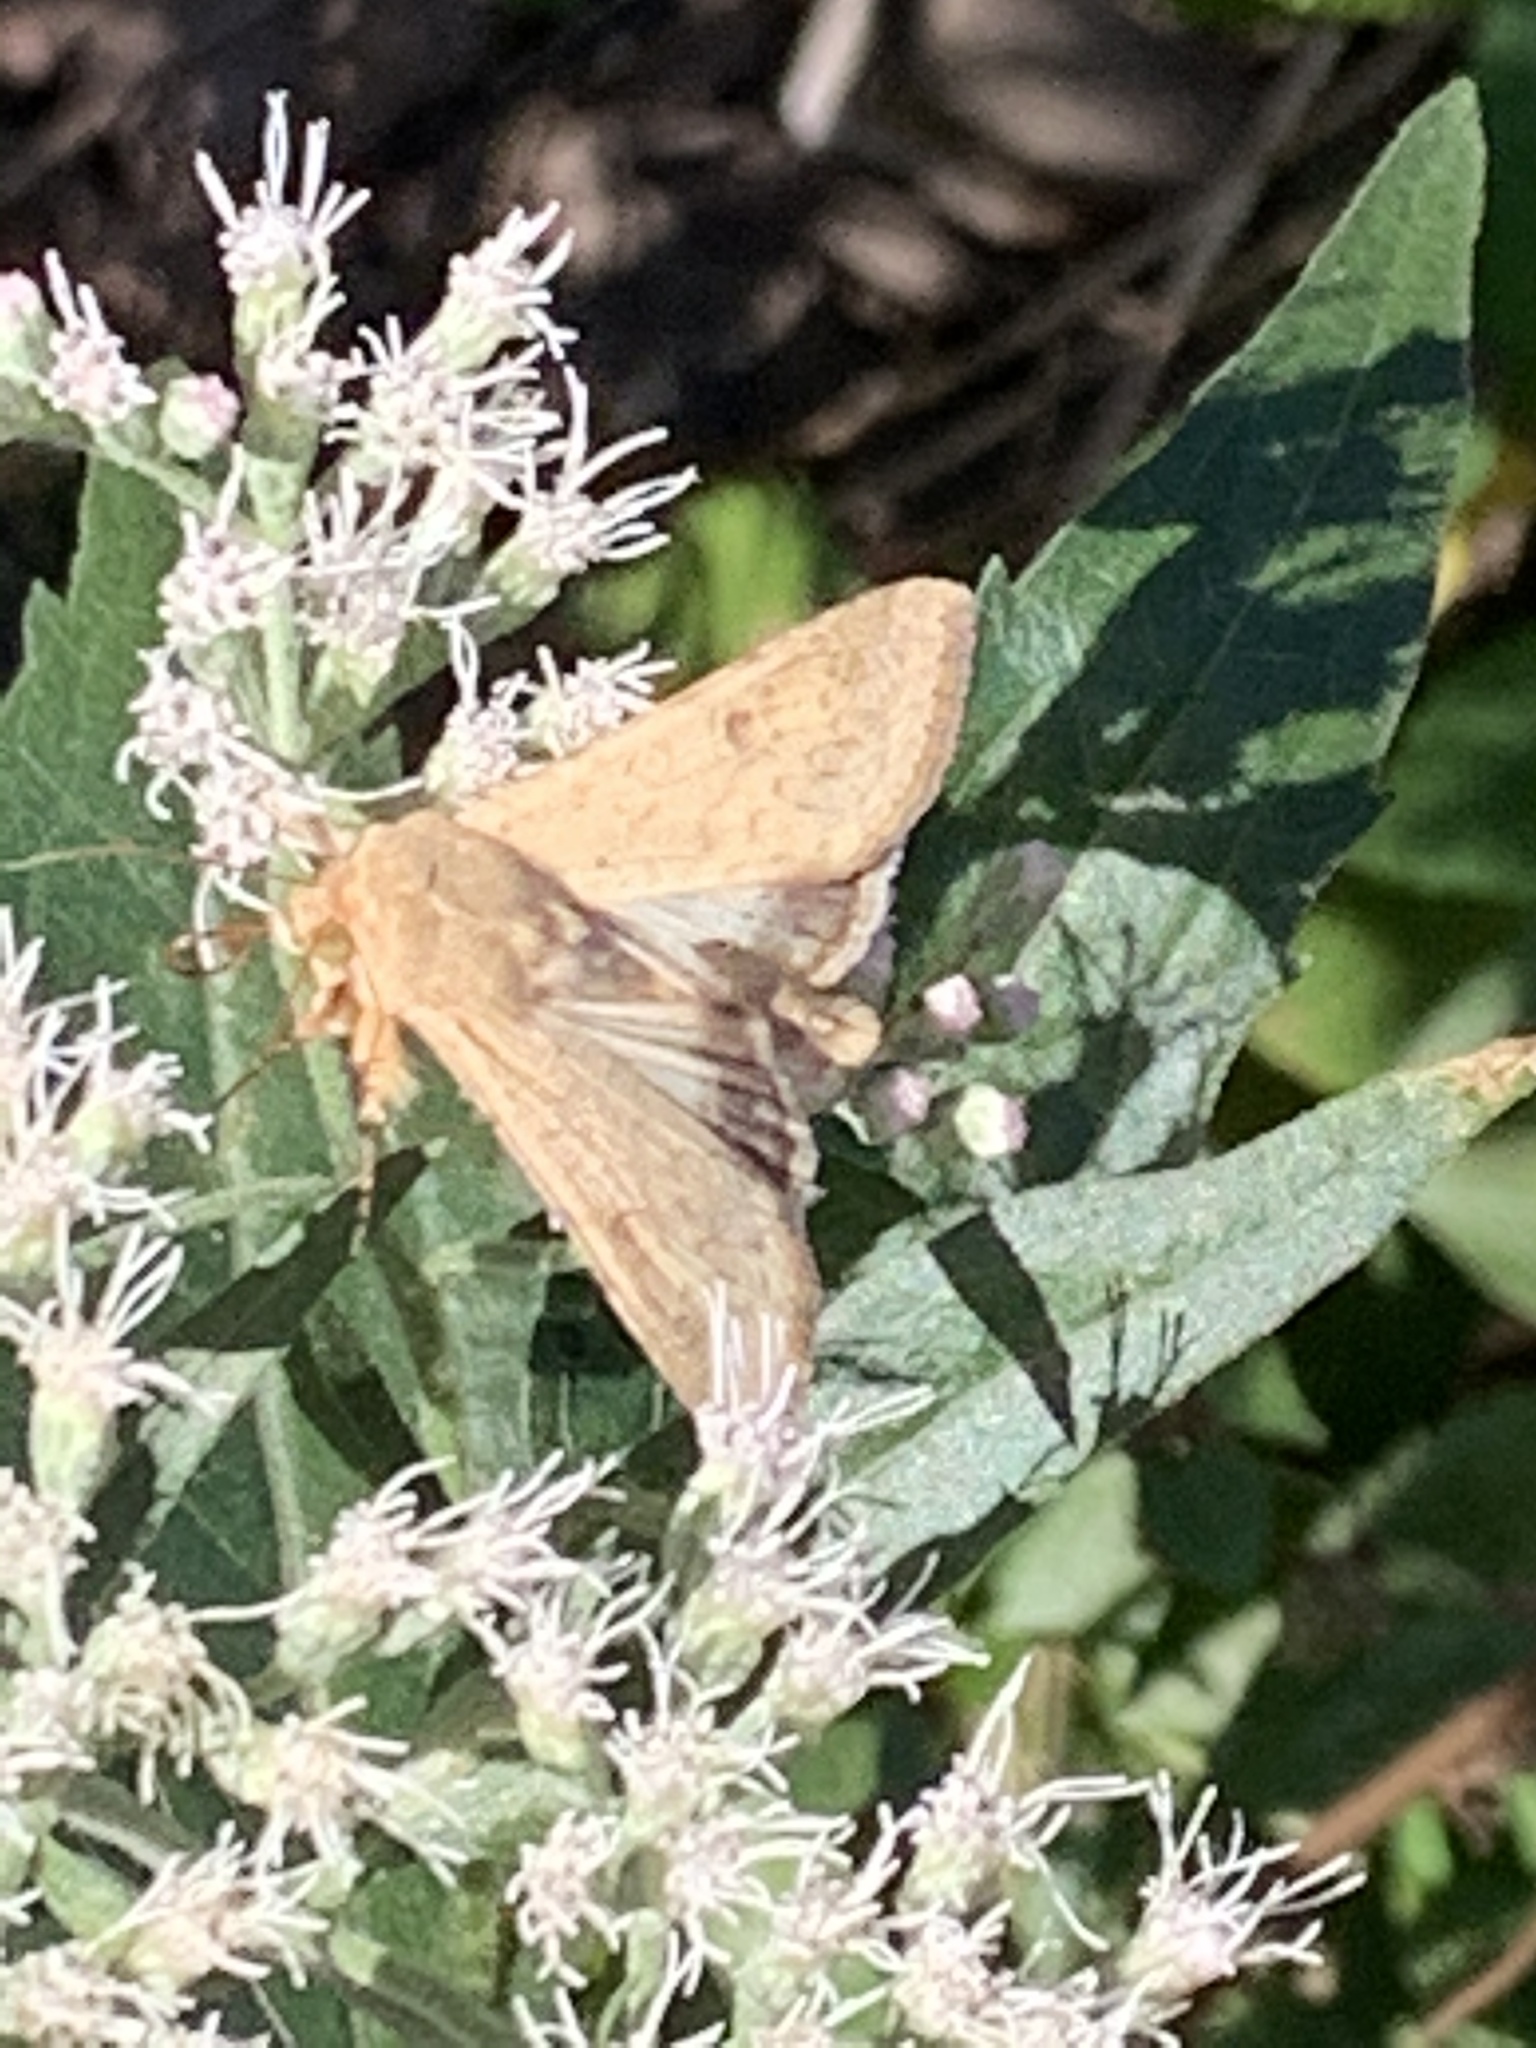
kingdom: Animalia
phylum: Arthropoda
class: Insecta
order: Lepidoptera
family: Noctuidae
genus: Helicoverpa
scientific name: Helicoverpa zea
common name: Bollworm
